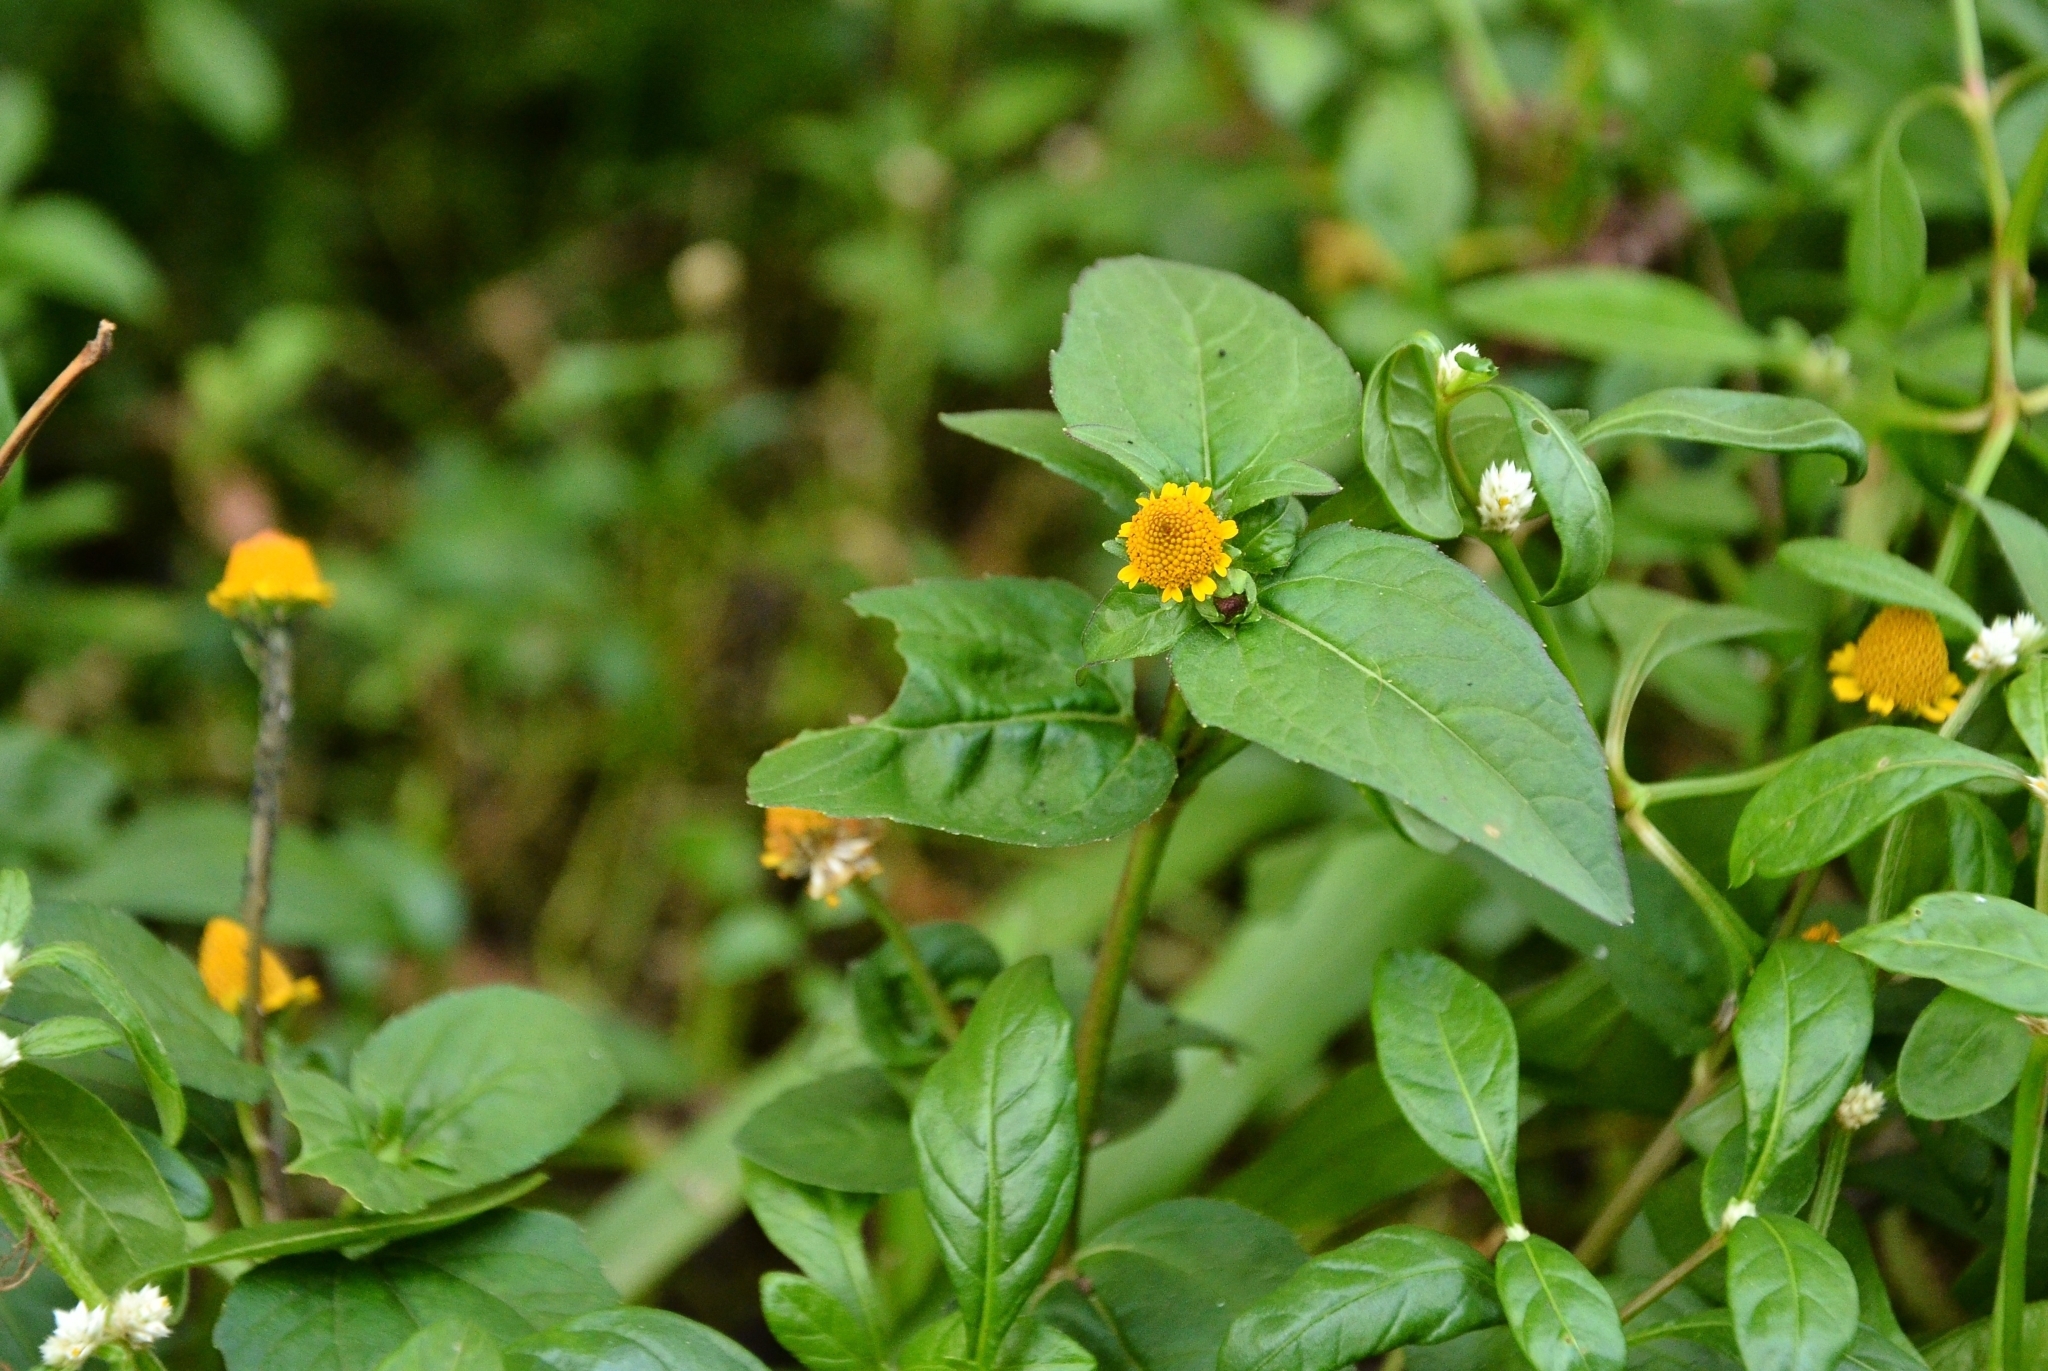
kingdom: Plantae
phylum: Tracheophyta
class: Magnoliopsida
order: Asterales
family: Asteraceae
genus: Acmella
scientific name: Acmella uliginosa
